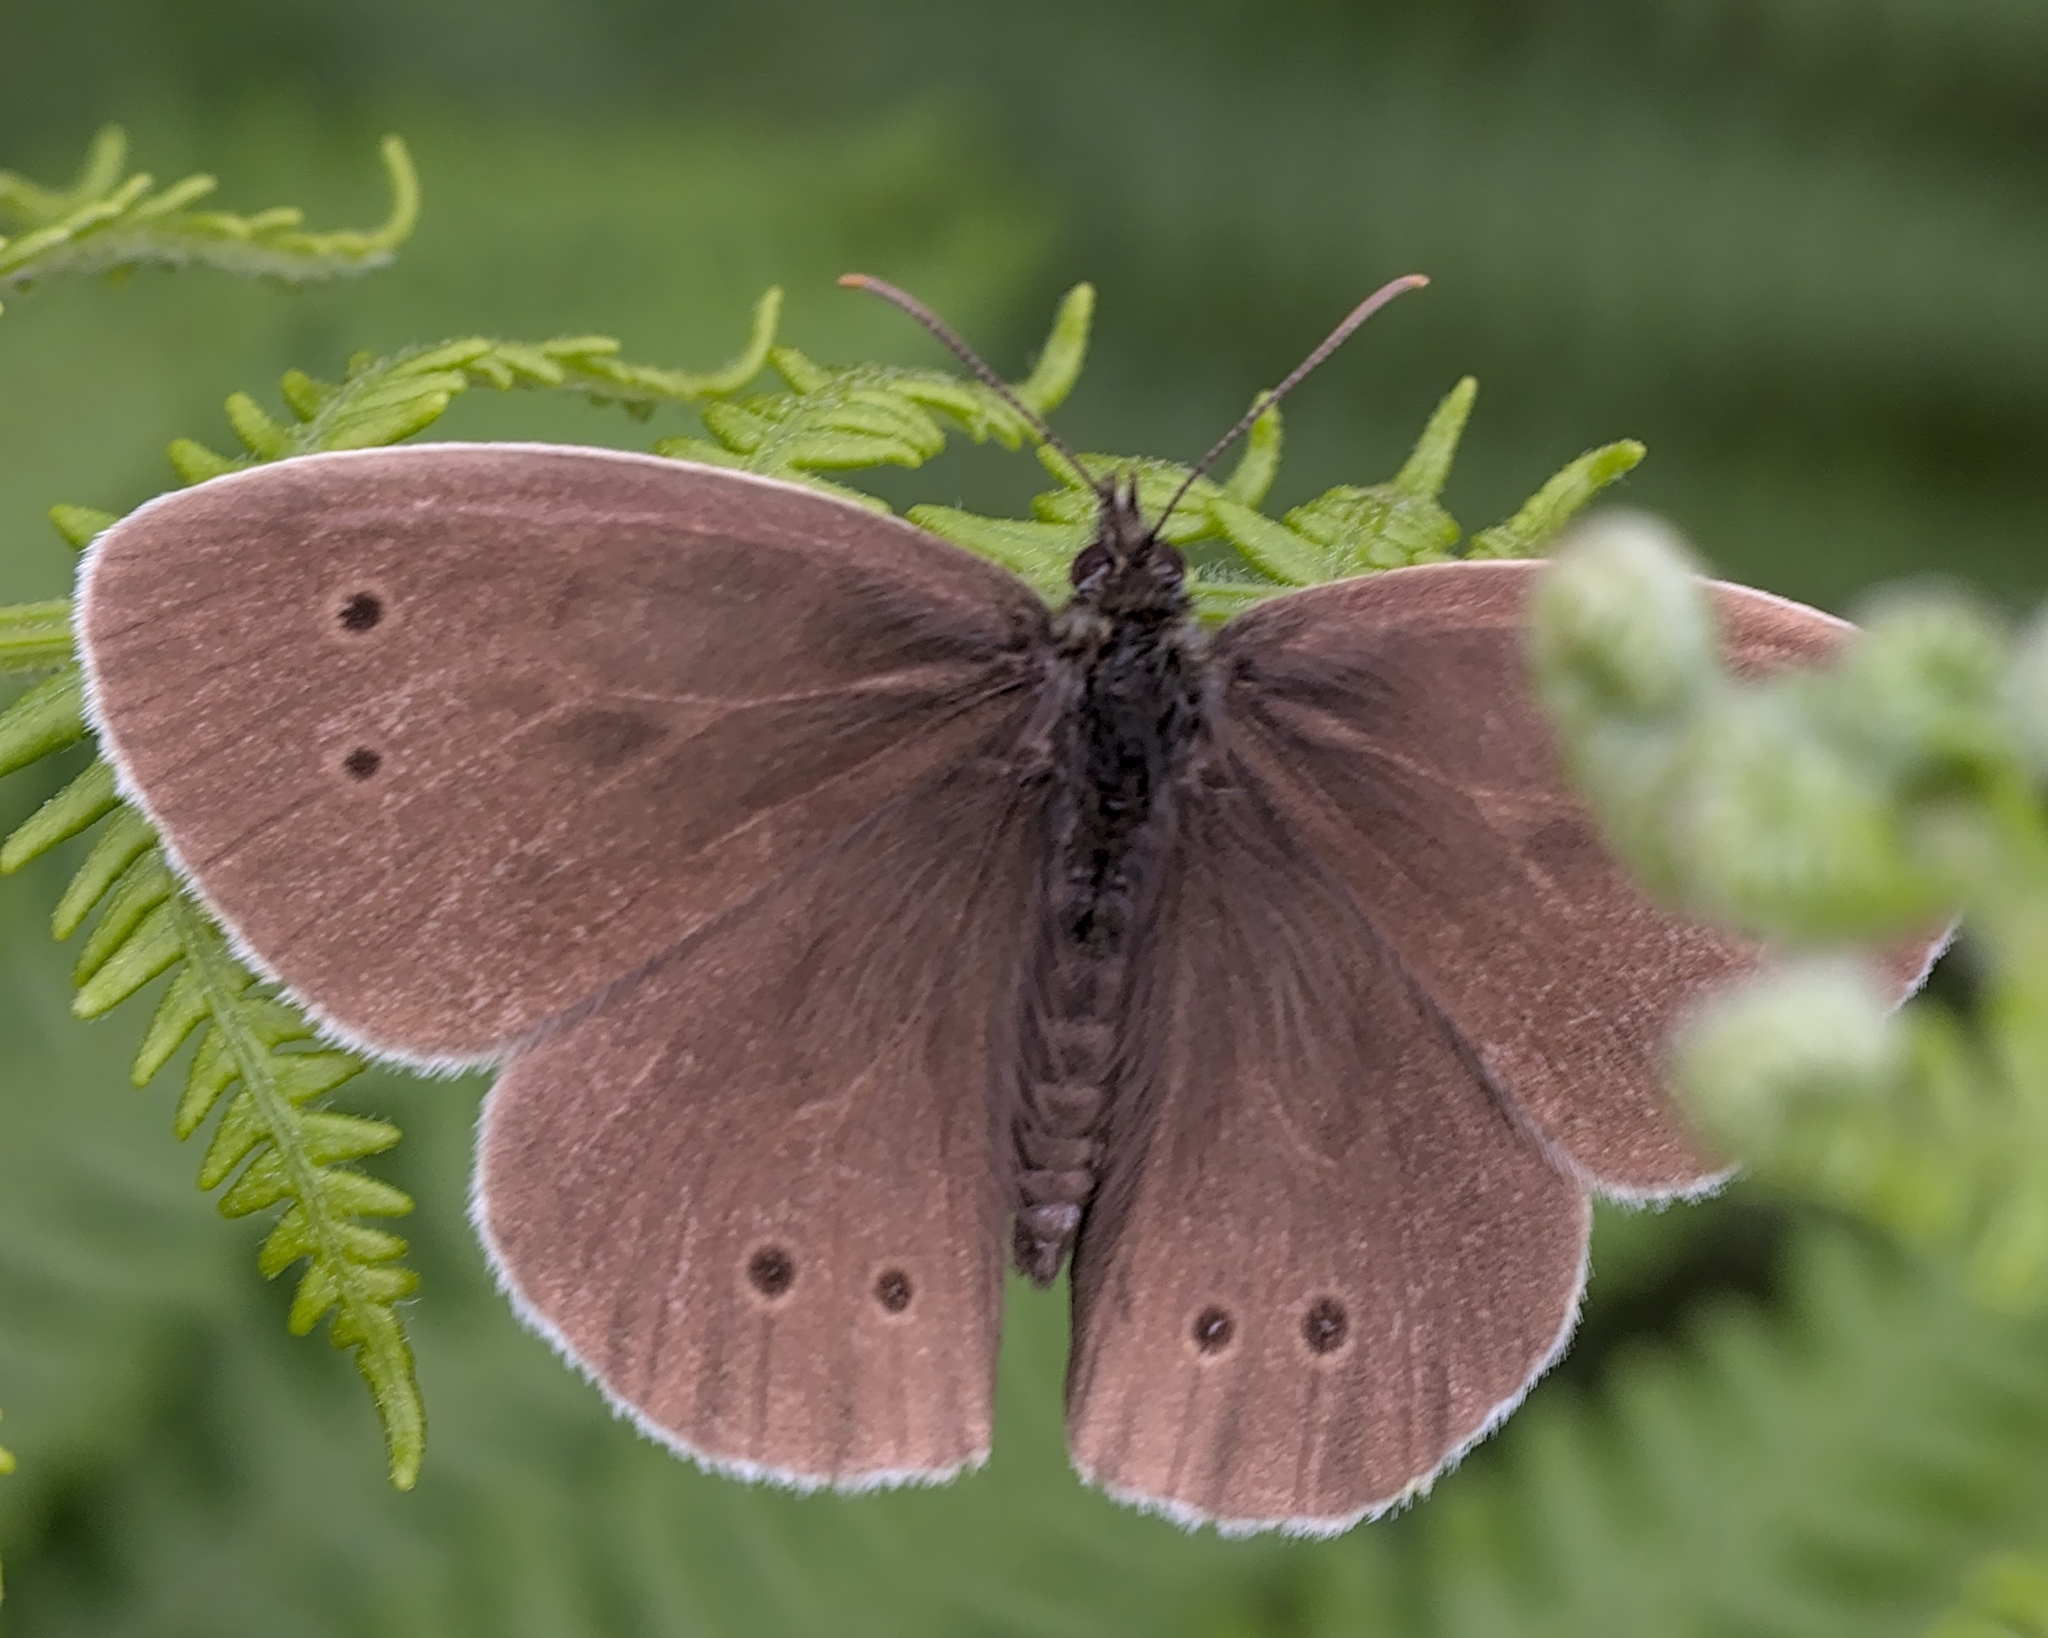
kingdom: Animalia
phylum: Arthropoda
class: Insecta
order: Lepidoptera
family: Nymphalidae
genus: Aphantopus
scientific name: Aphantopus hyperantus
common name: Ringlet
